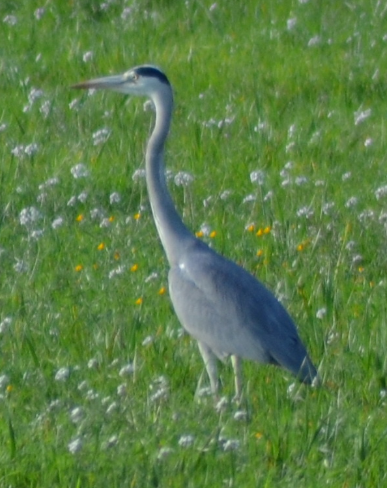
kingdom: Animalia
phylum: Chordata
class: Aves
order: Pelecaniformes
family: Ardeidae
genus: Ardea
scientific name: Ardea cinerea
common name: Grey heron
